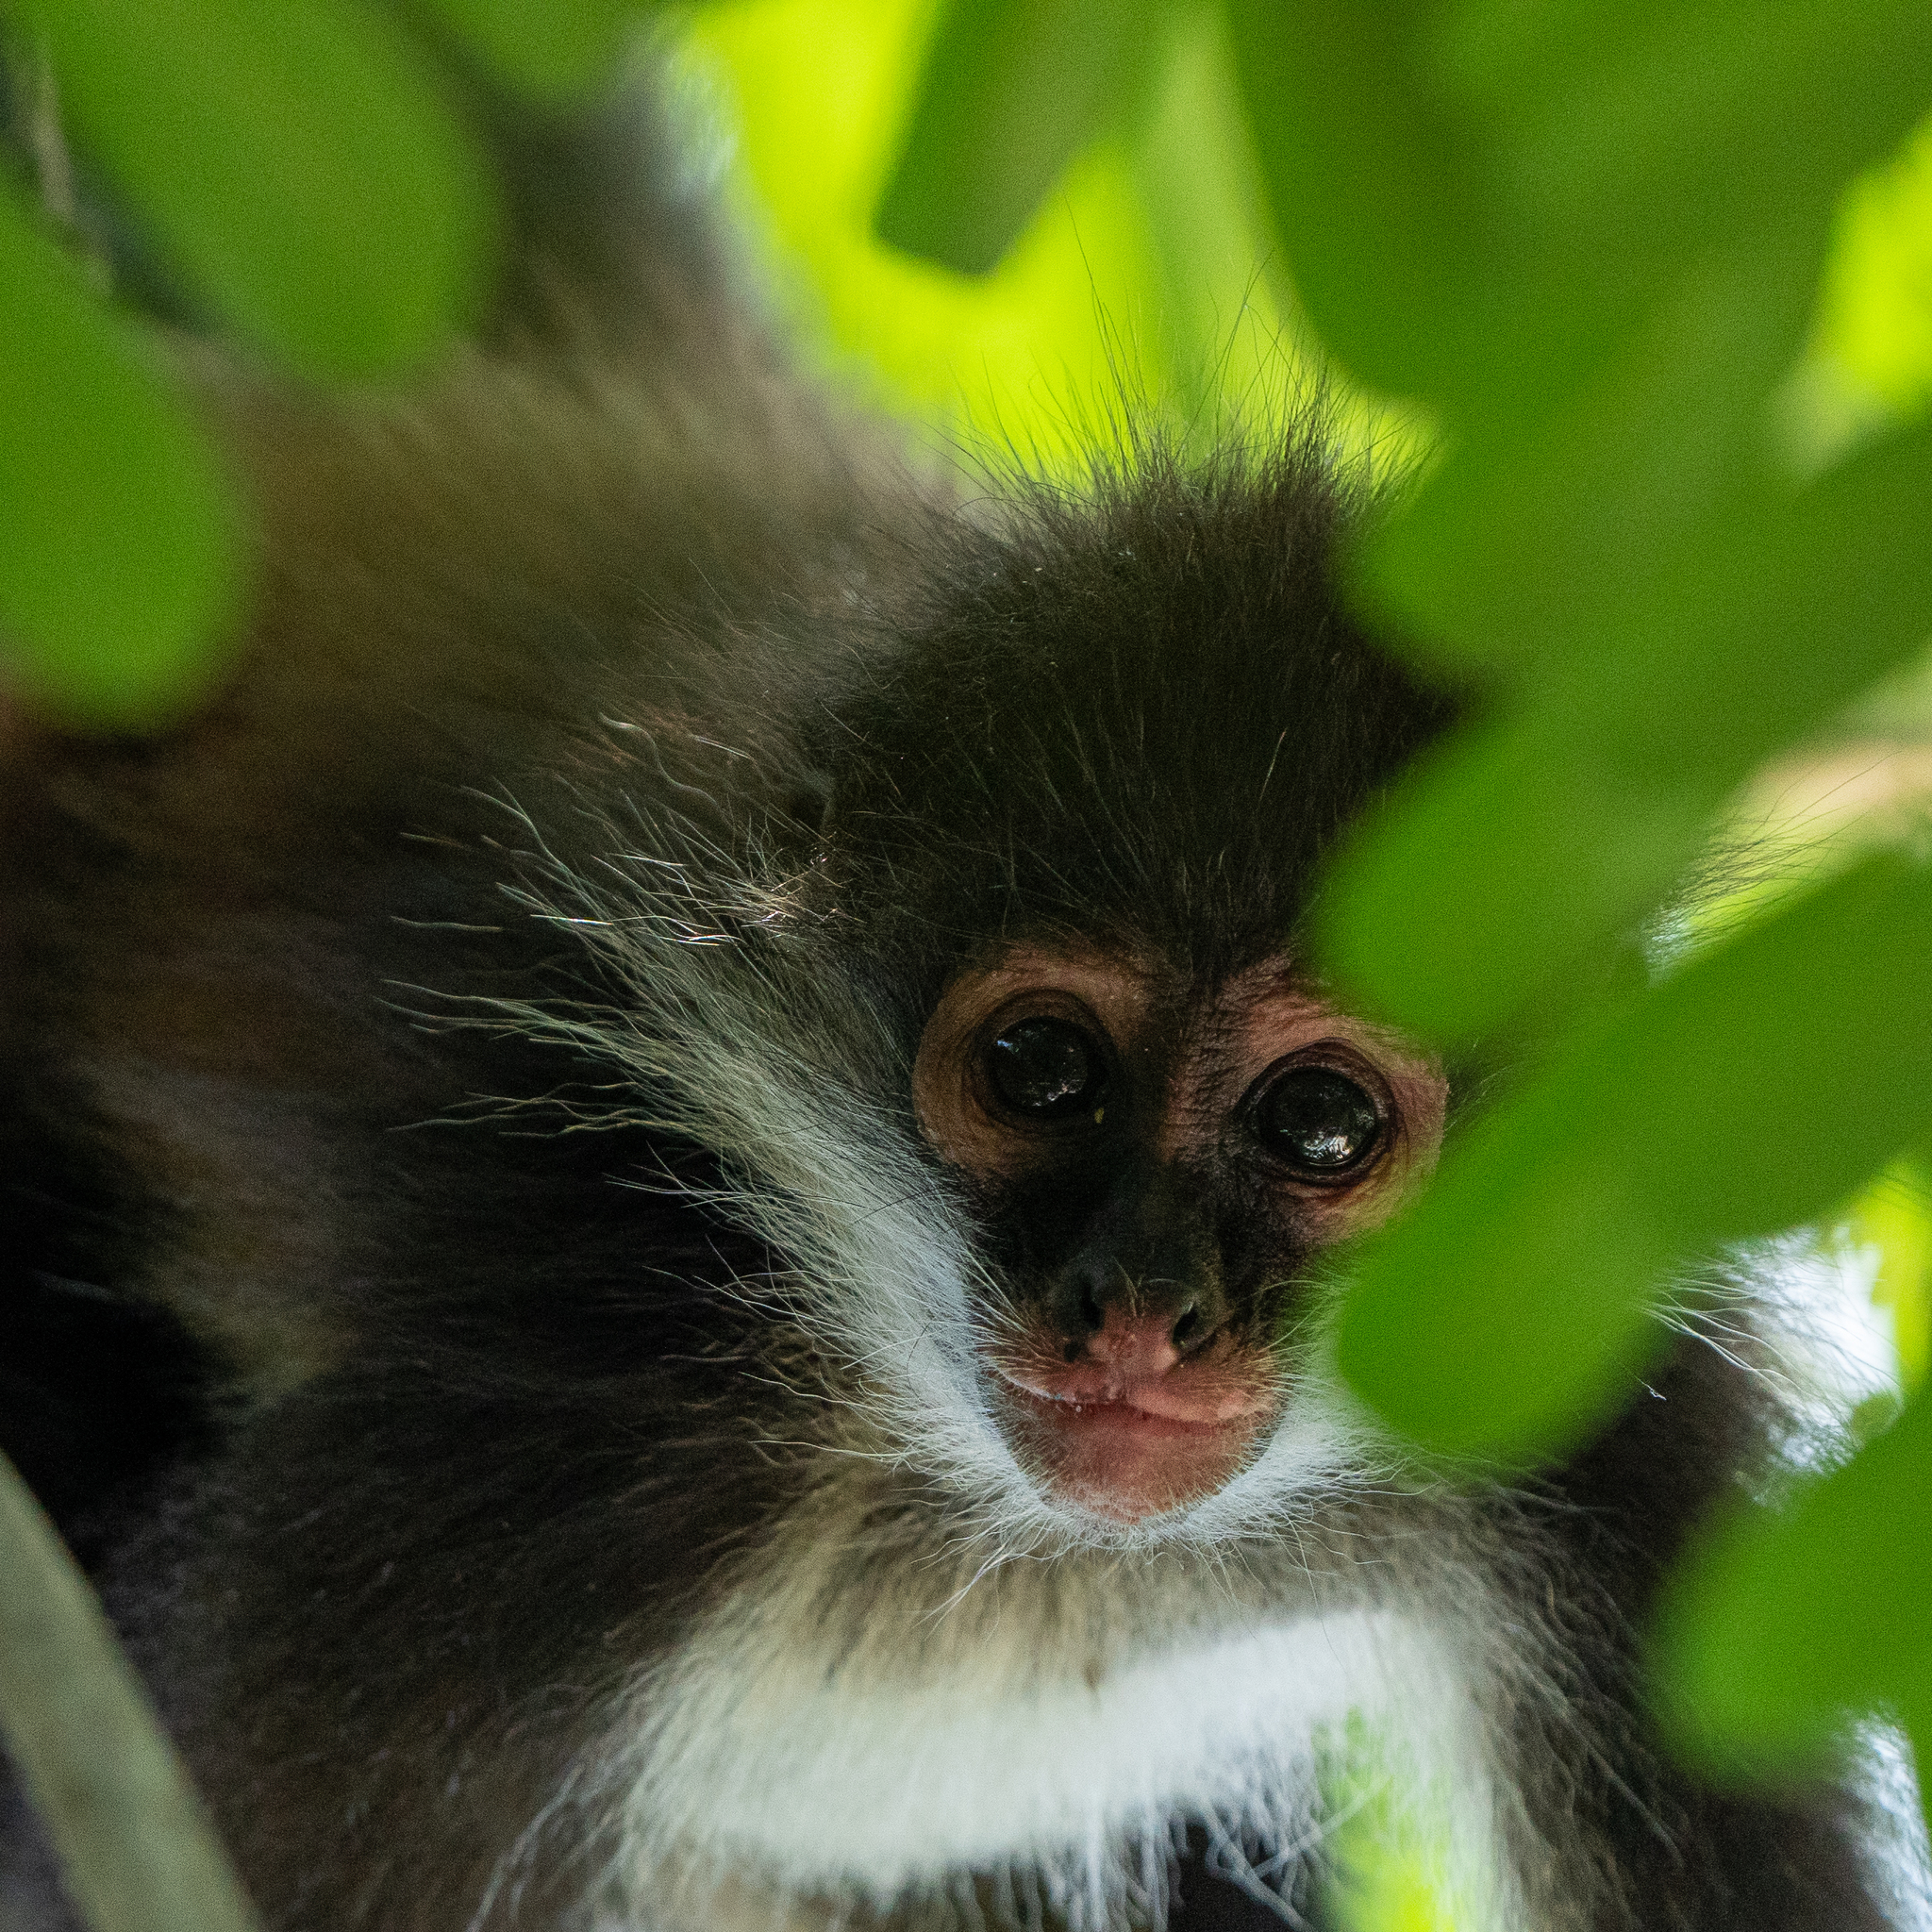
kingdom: Animalia
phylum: Chordata
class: Mammalia
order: Primates
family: Atelidae
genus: Ateles
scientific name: Ateles geoffroyi
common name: Black-handed spider monkey
